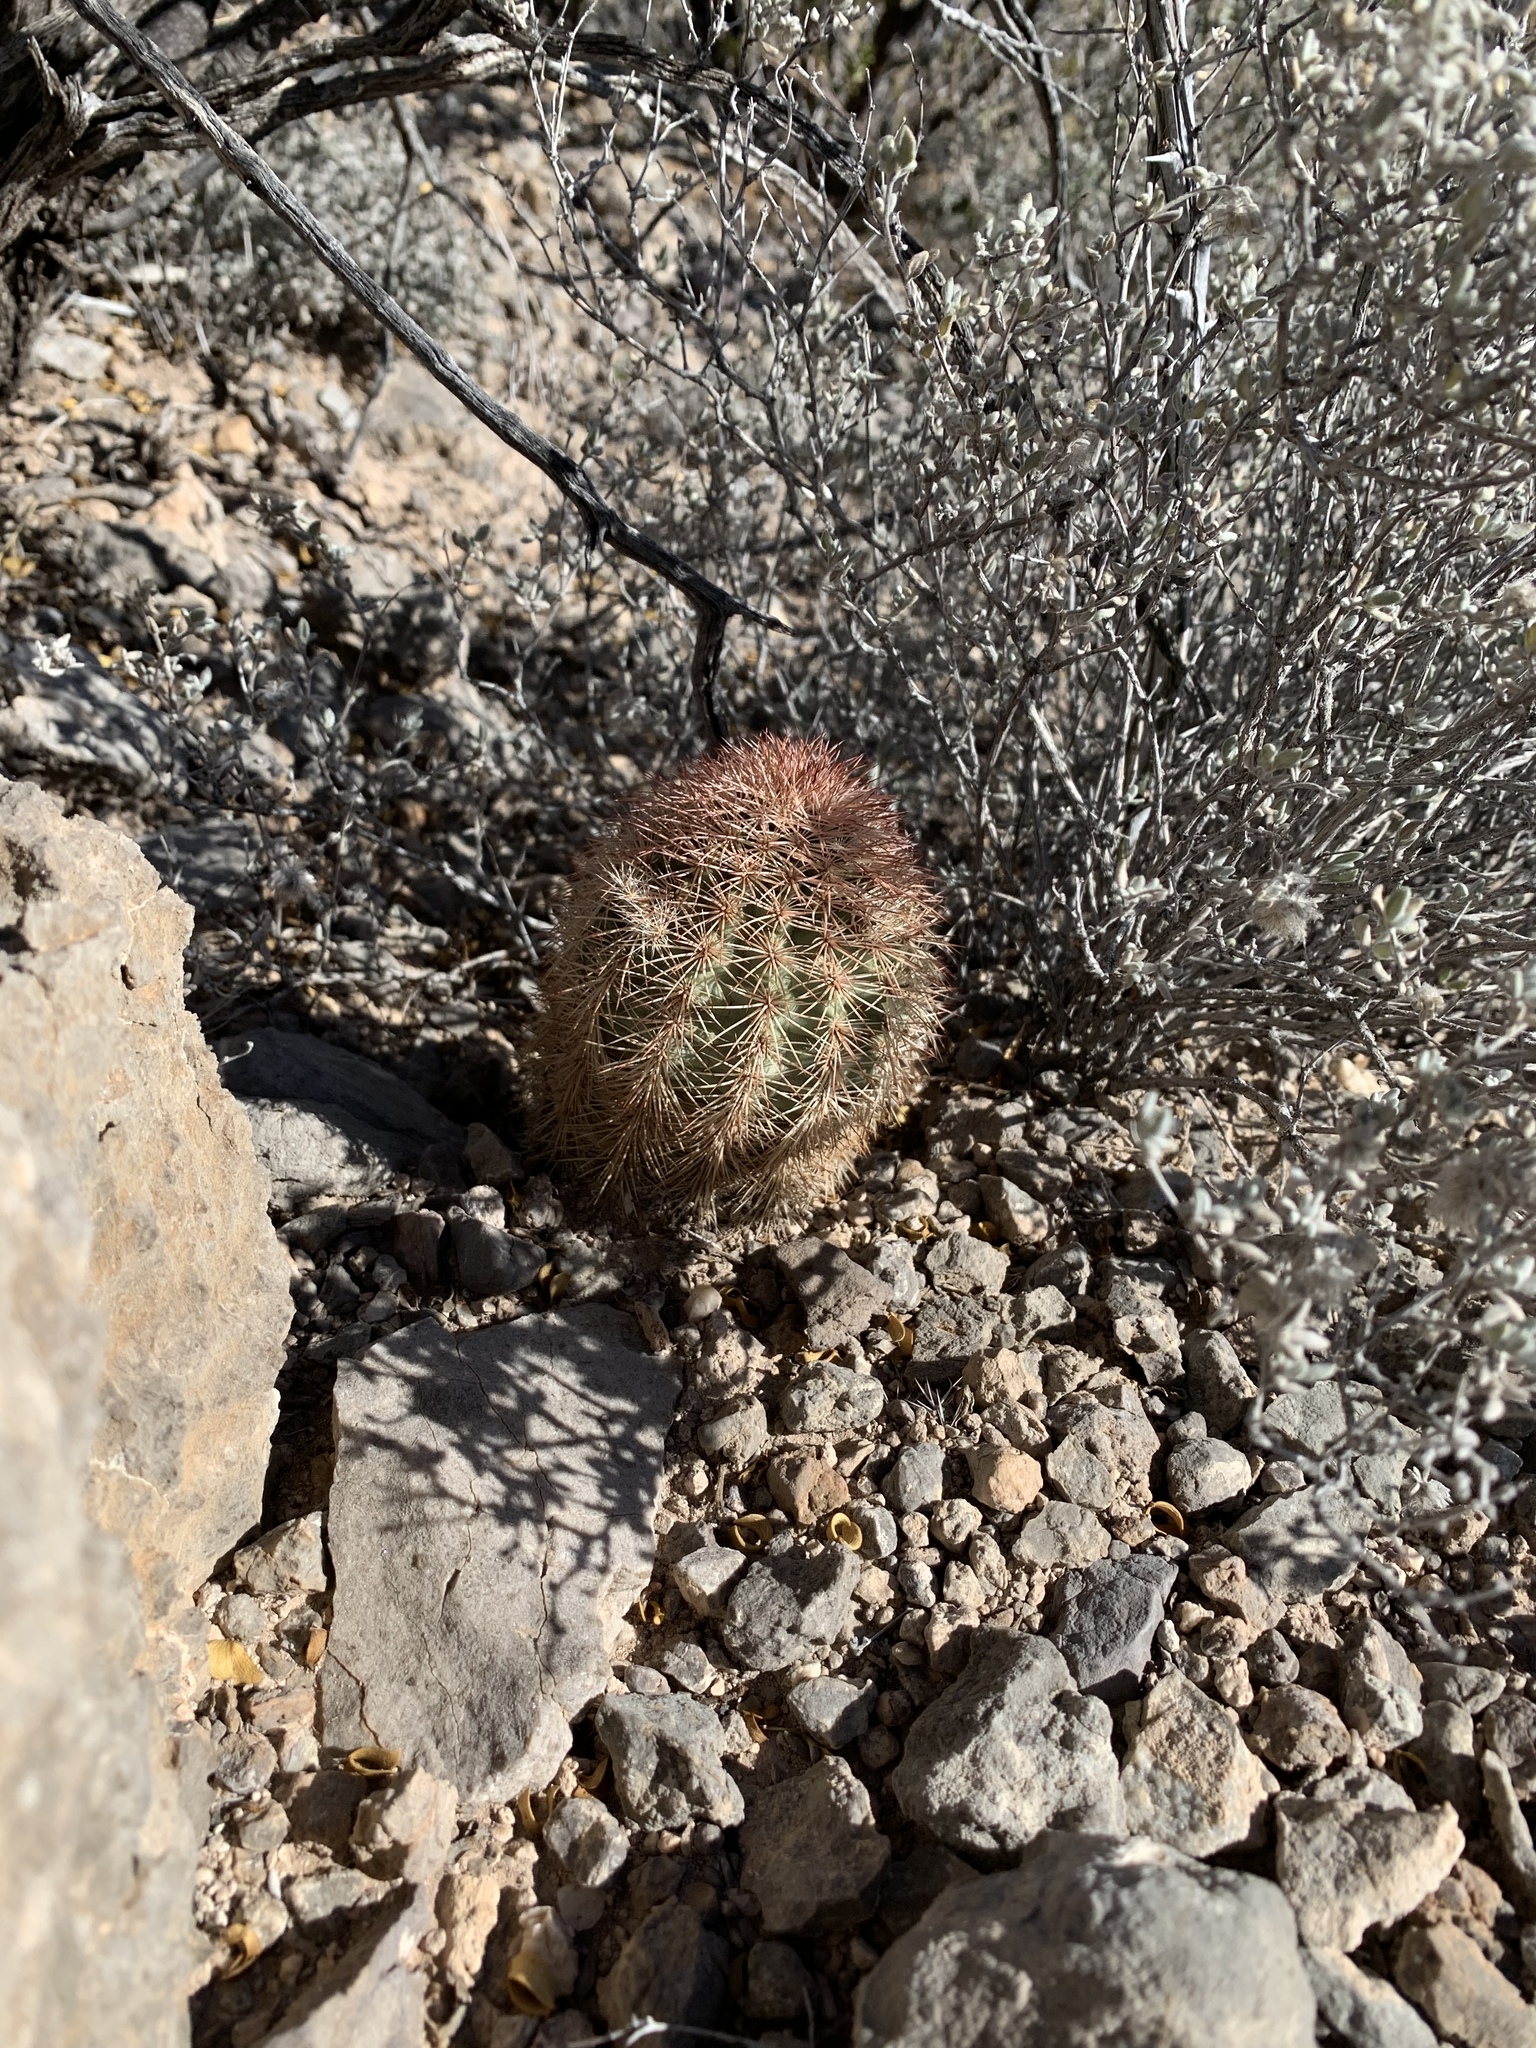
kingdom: Plantae
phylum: Tracheophyta
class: Magnoliopsida
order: Caryophyllales
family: Cactaceae
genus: Echinocereus
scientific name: Echinocereus dasyacanthus
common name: Spiny hedgehog cactus
